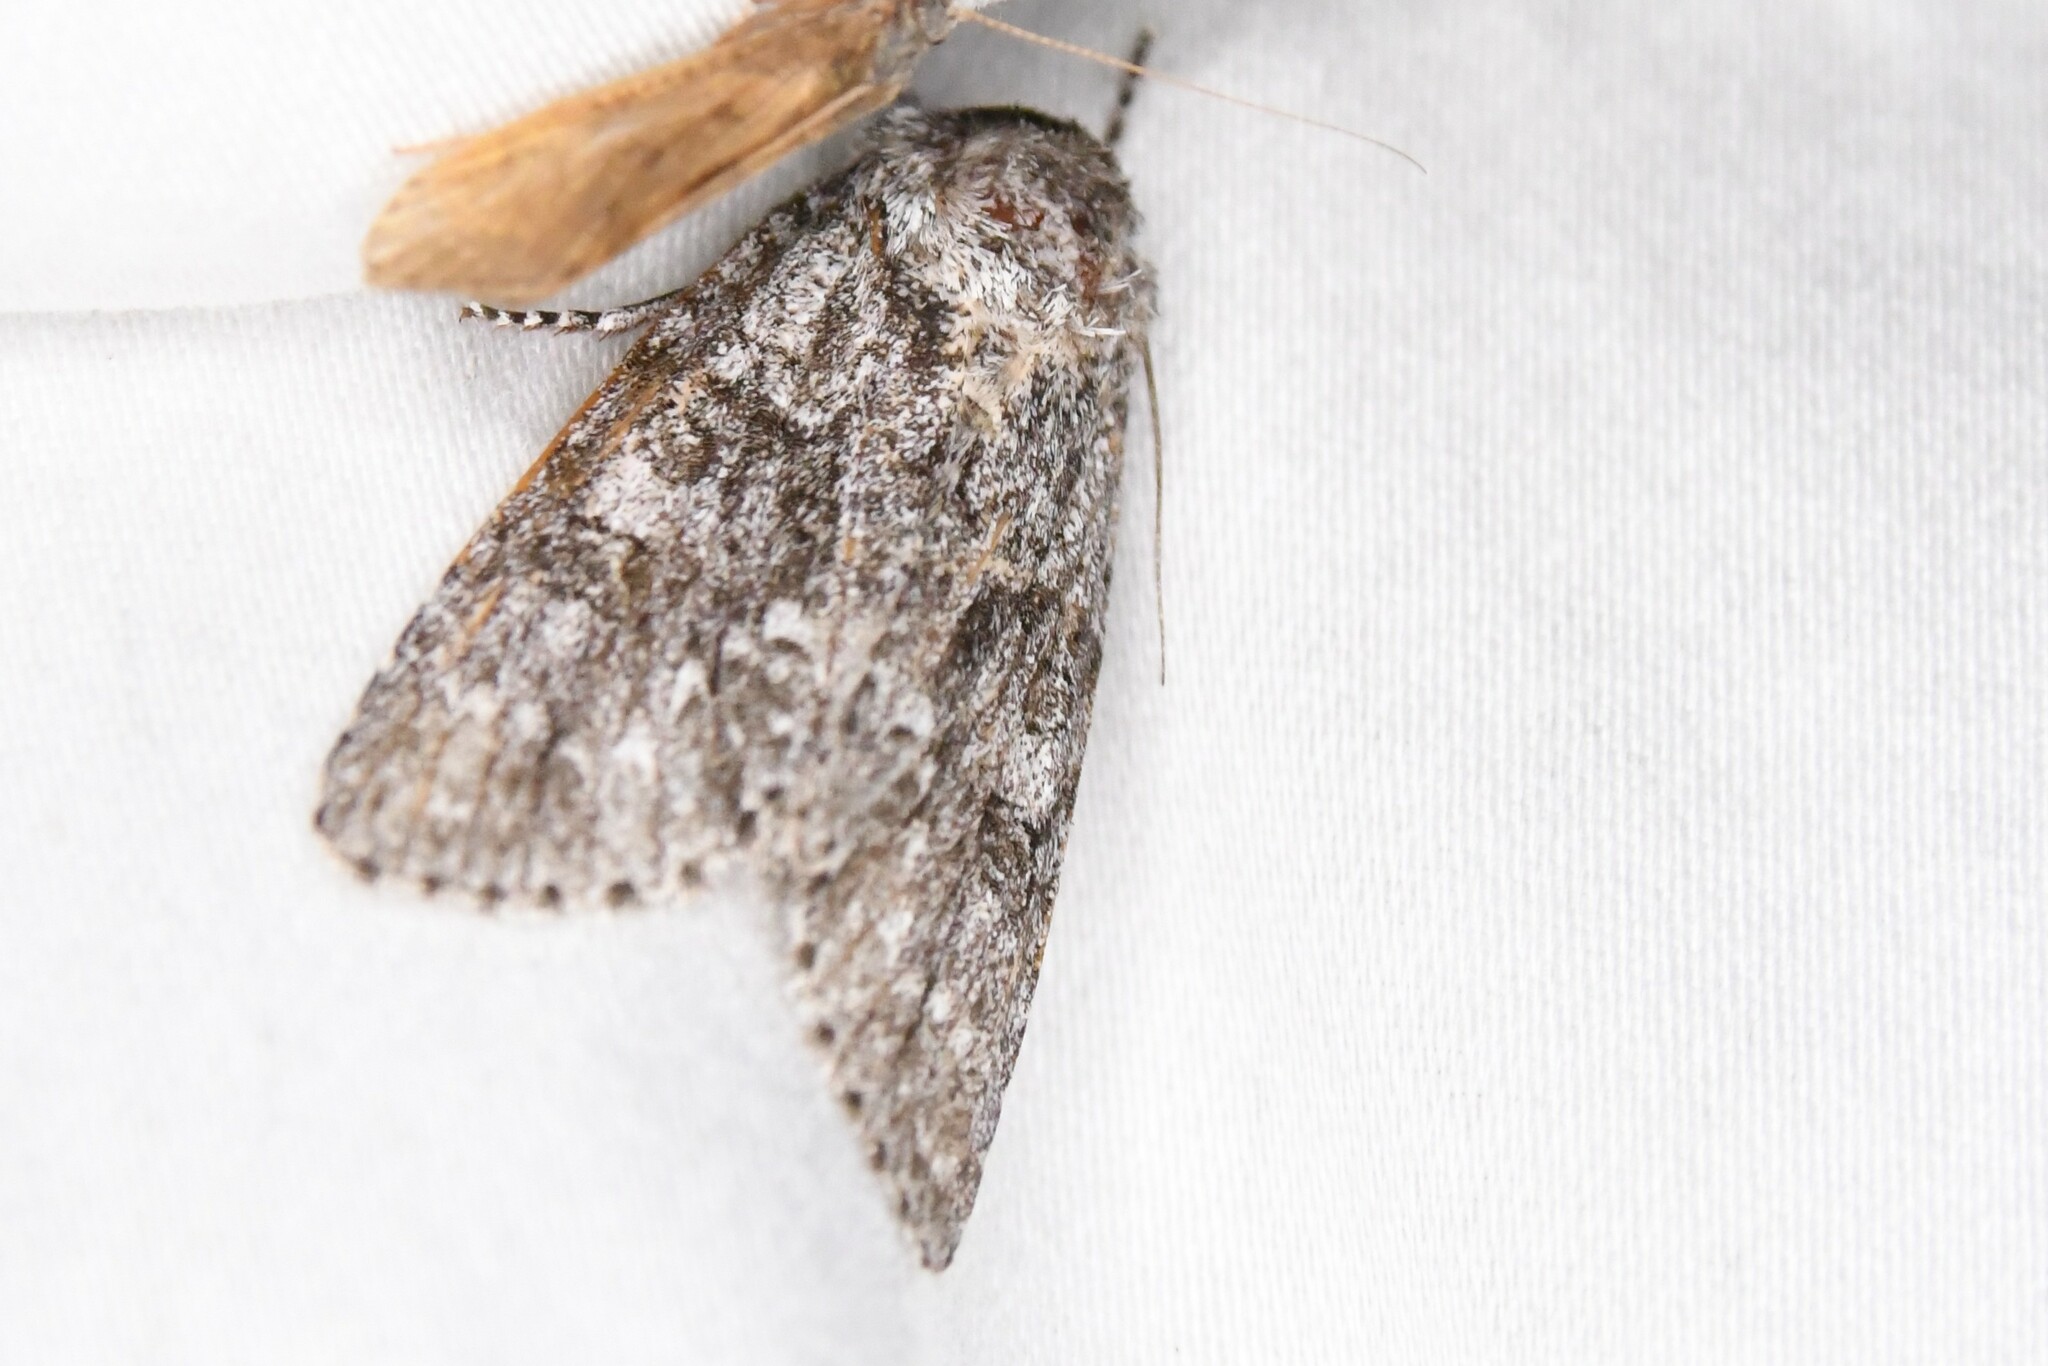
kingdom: Animalia
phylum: Arthropoda
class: Insecta
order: Lepidoptera
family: Noctuidae
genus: Acronicta
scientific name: Acronicta impleta
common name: Powdered dagger
